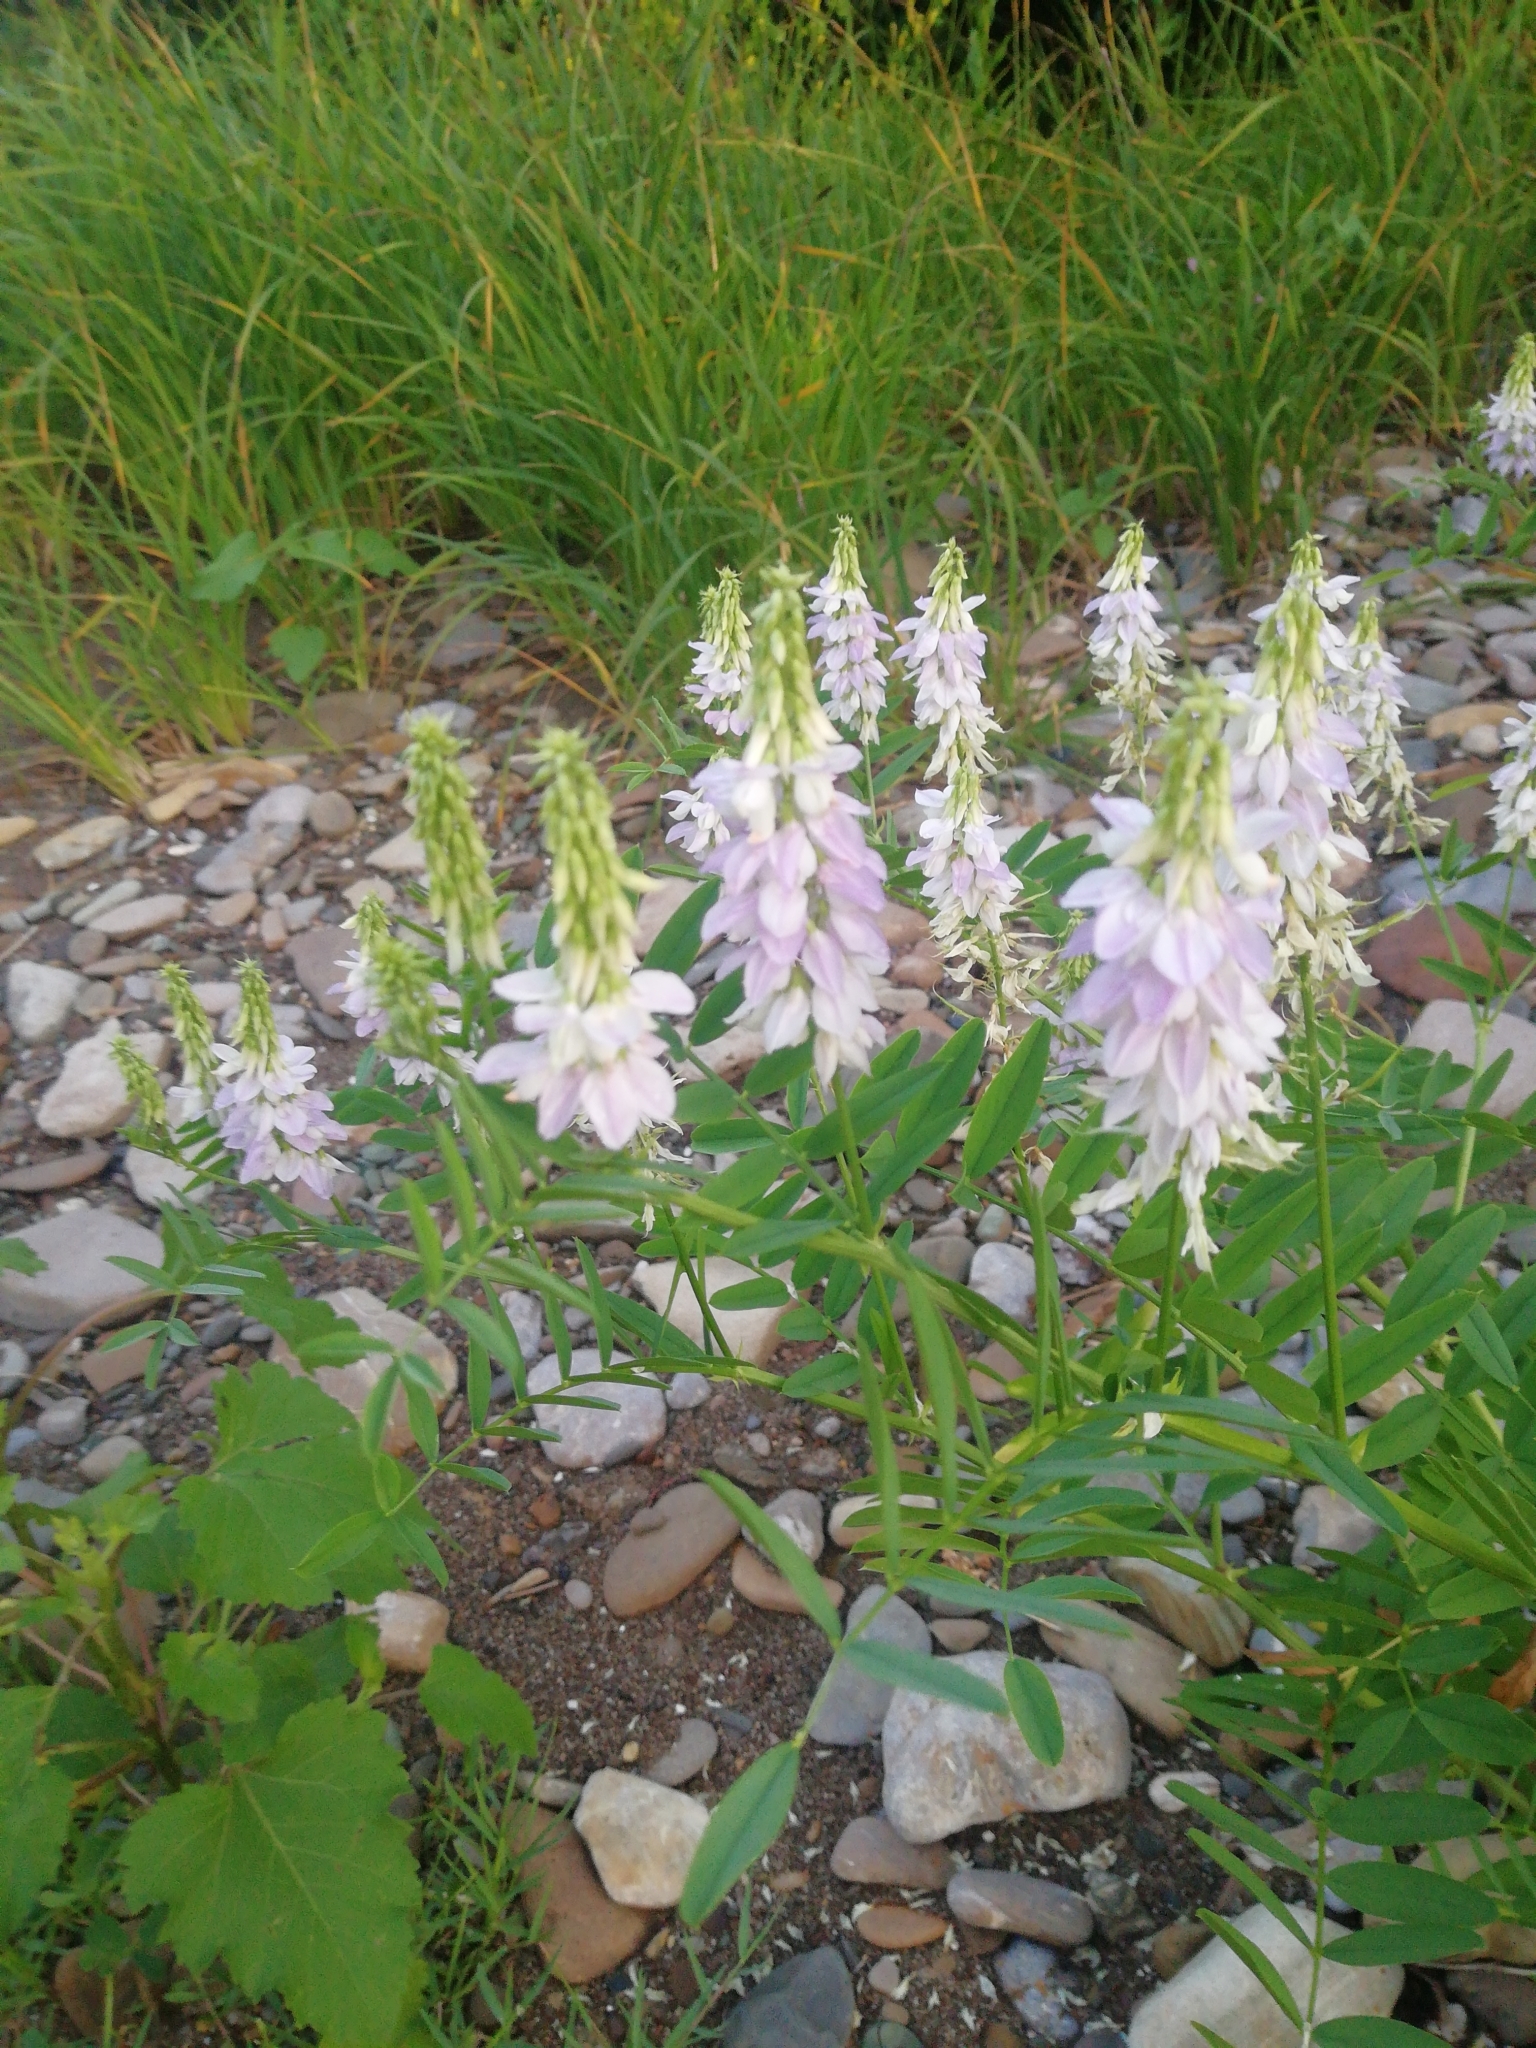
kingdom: Plantae
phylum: Tracheophyta
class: Magnoliopsida
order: Fabales
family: Fabaceae
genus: Galega
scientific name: Galega officinalis
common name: Goat's-rue
